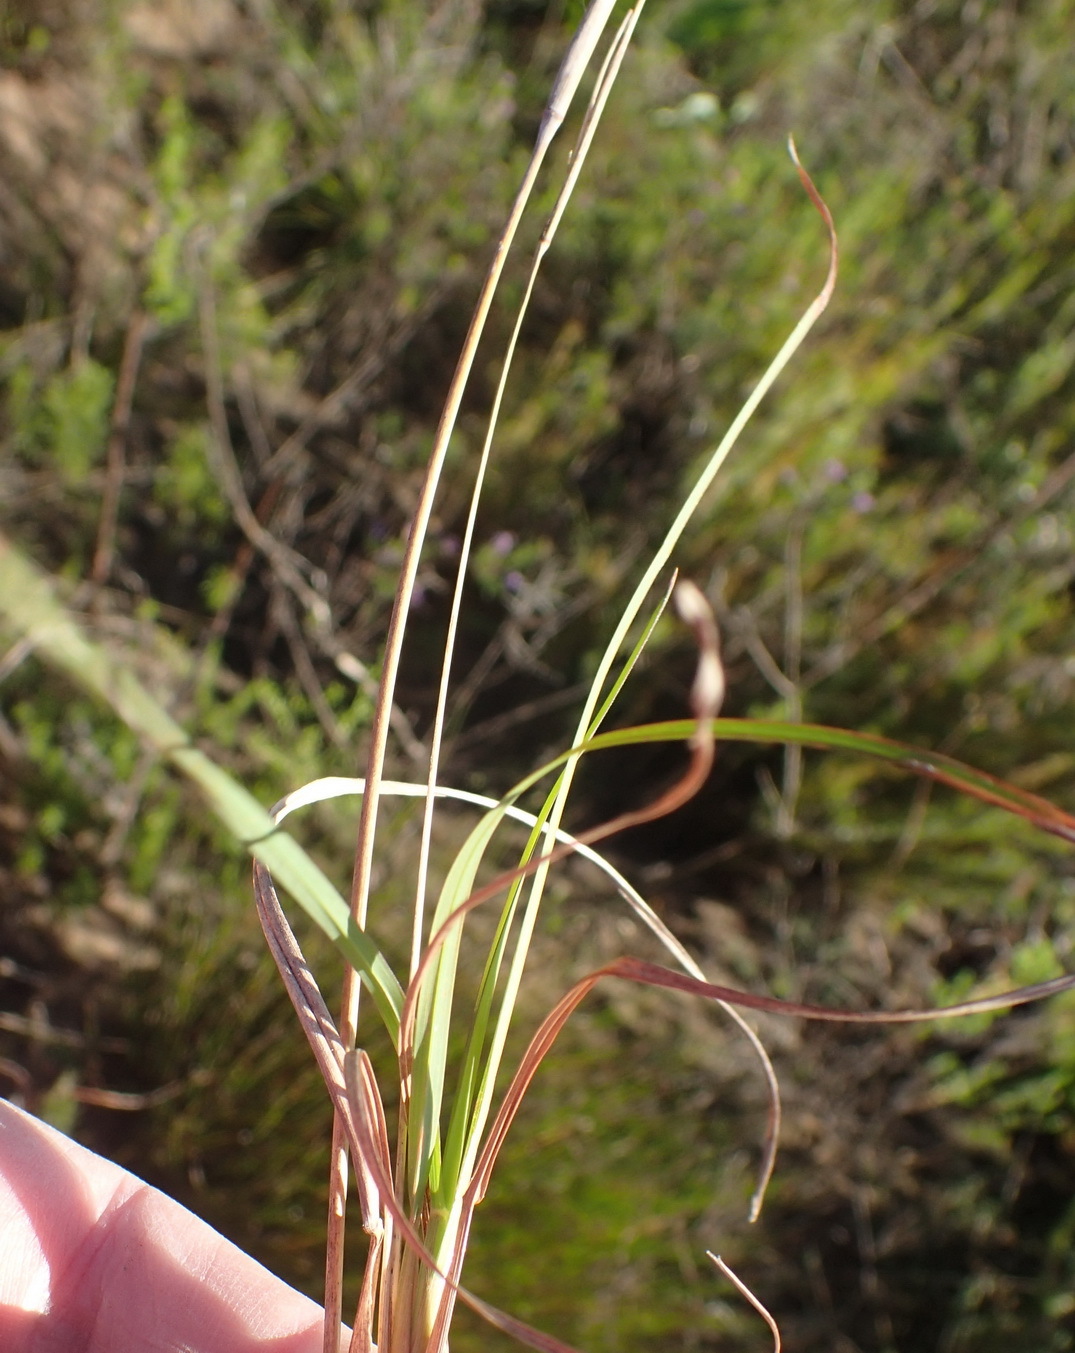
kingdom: Plantae
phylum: Tracheophyta
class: Liliopsida
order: Poales
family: Poaceae
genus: Themeda
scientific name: Themeda triandra
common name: Kangaroo grass
